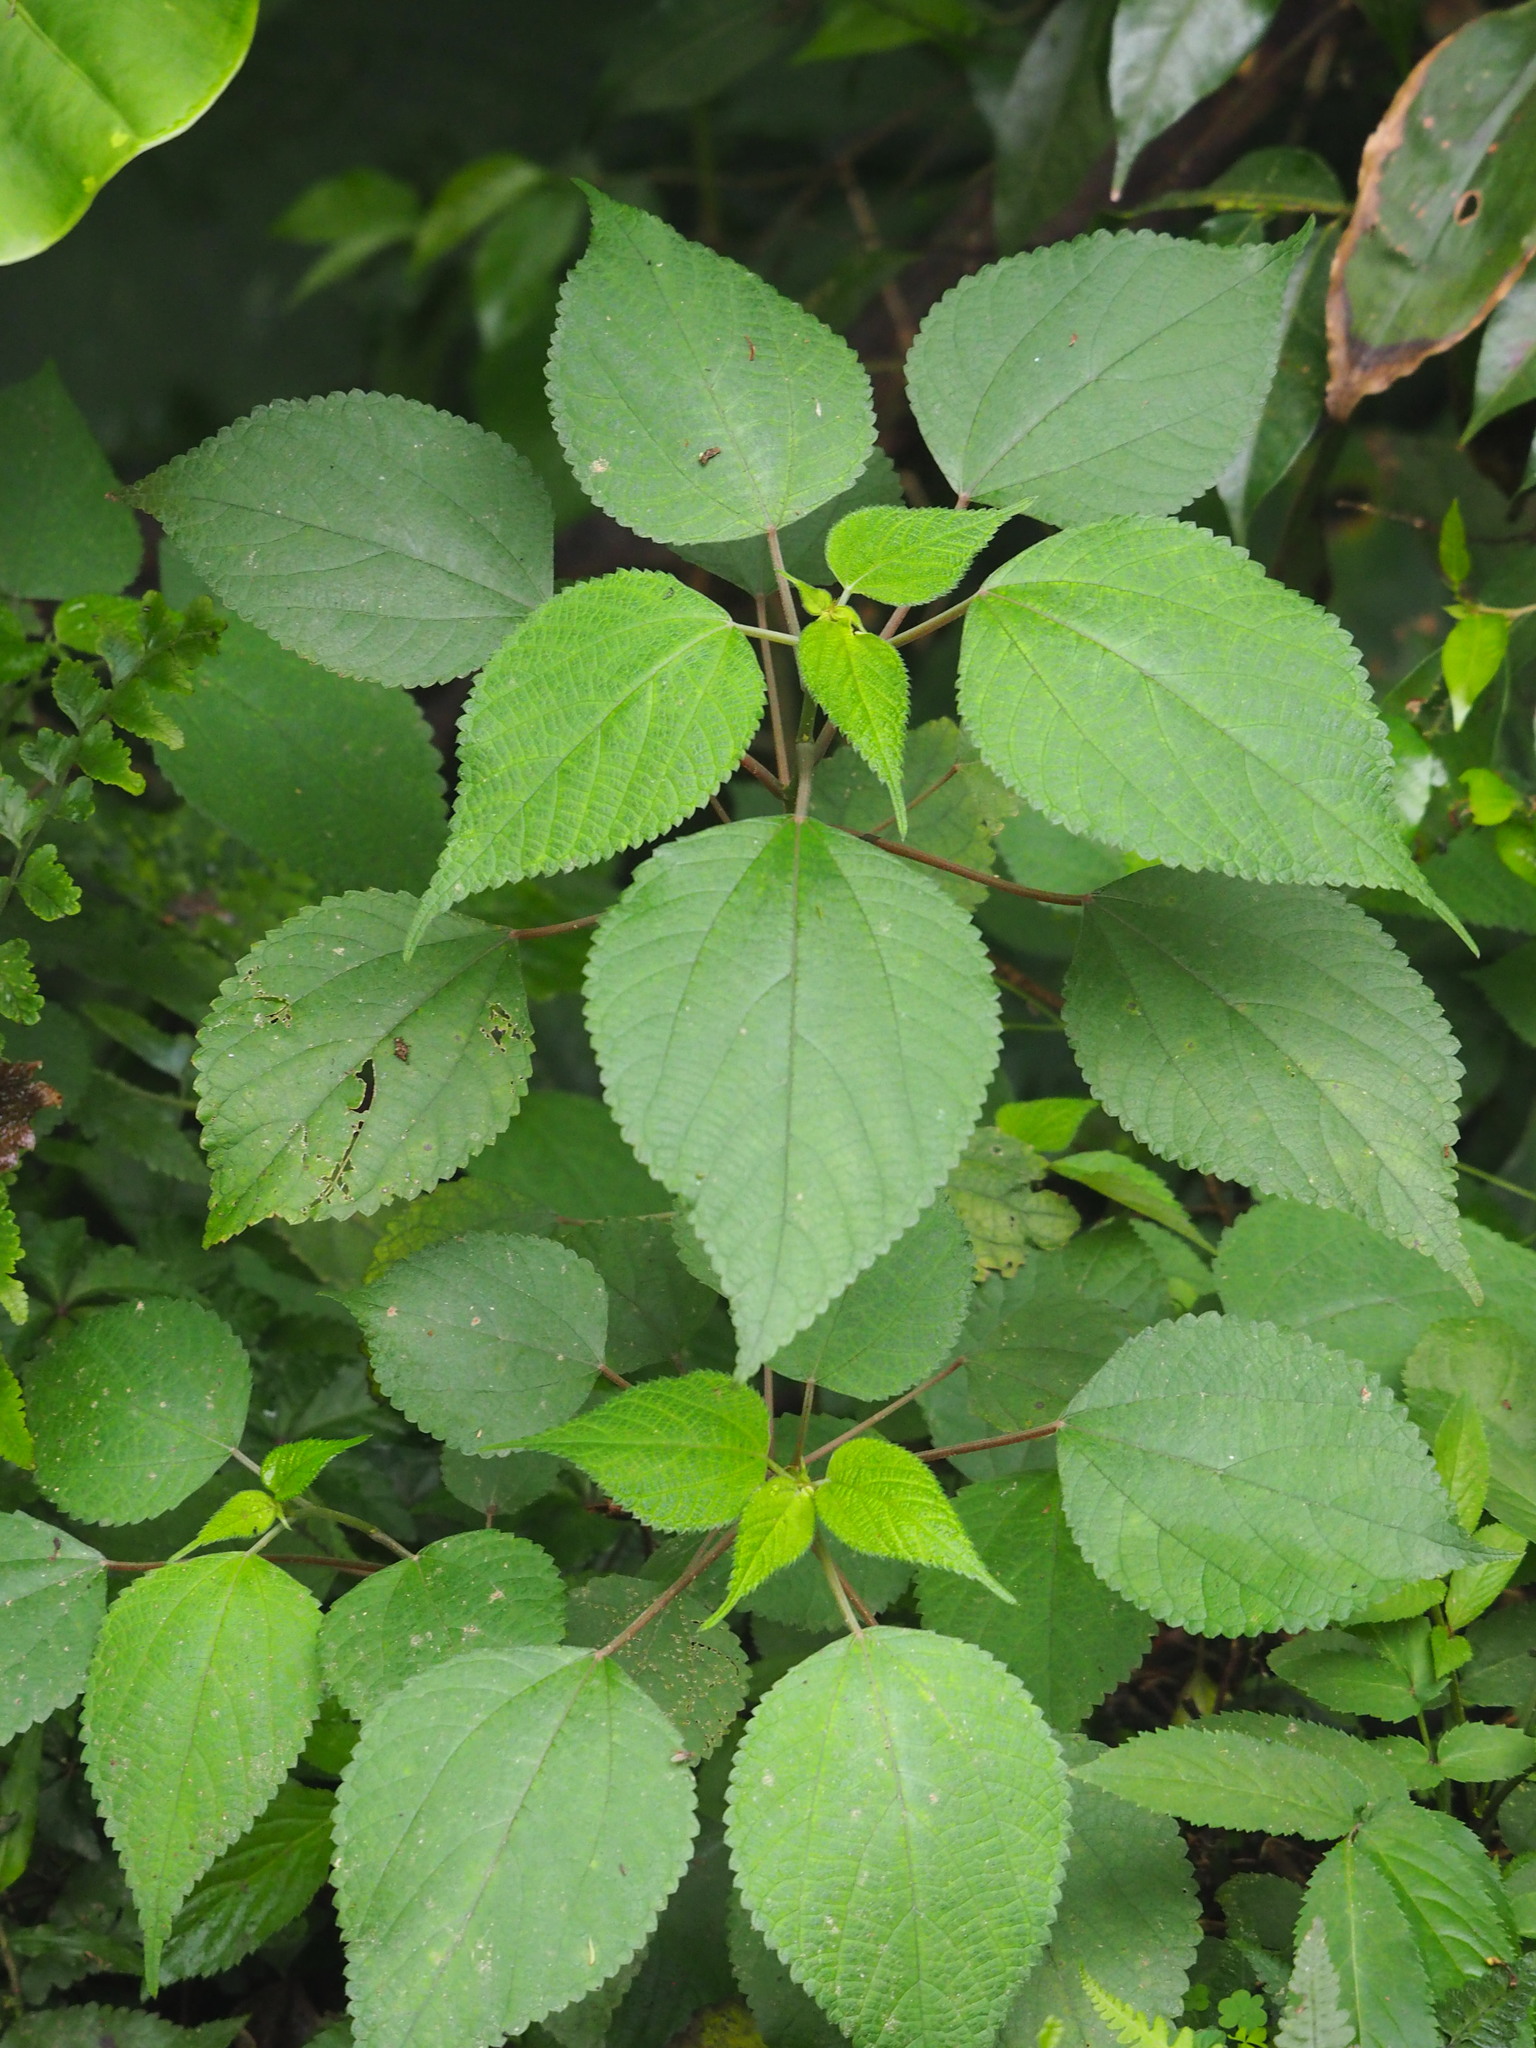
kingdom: Plantae
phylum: Tracheophyta
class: Magnoliopsida
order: Rosales
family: Urticaceae
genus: Boehmeria
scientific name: Boehmeria nivea
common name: Ramie chinese grass
